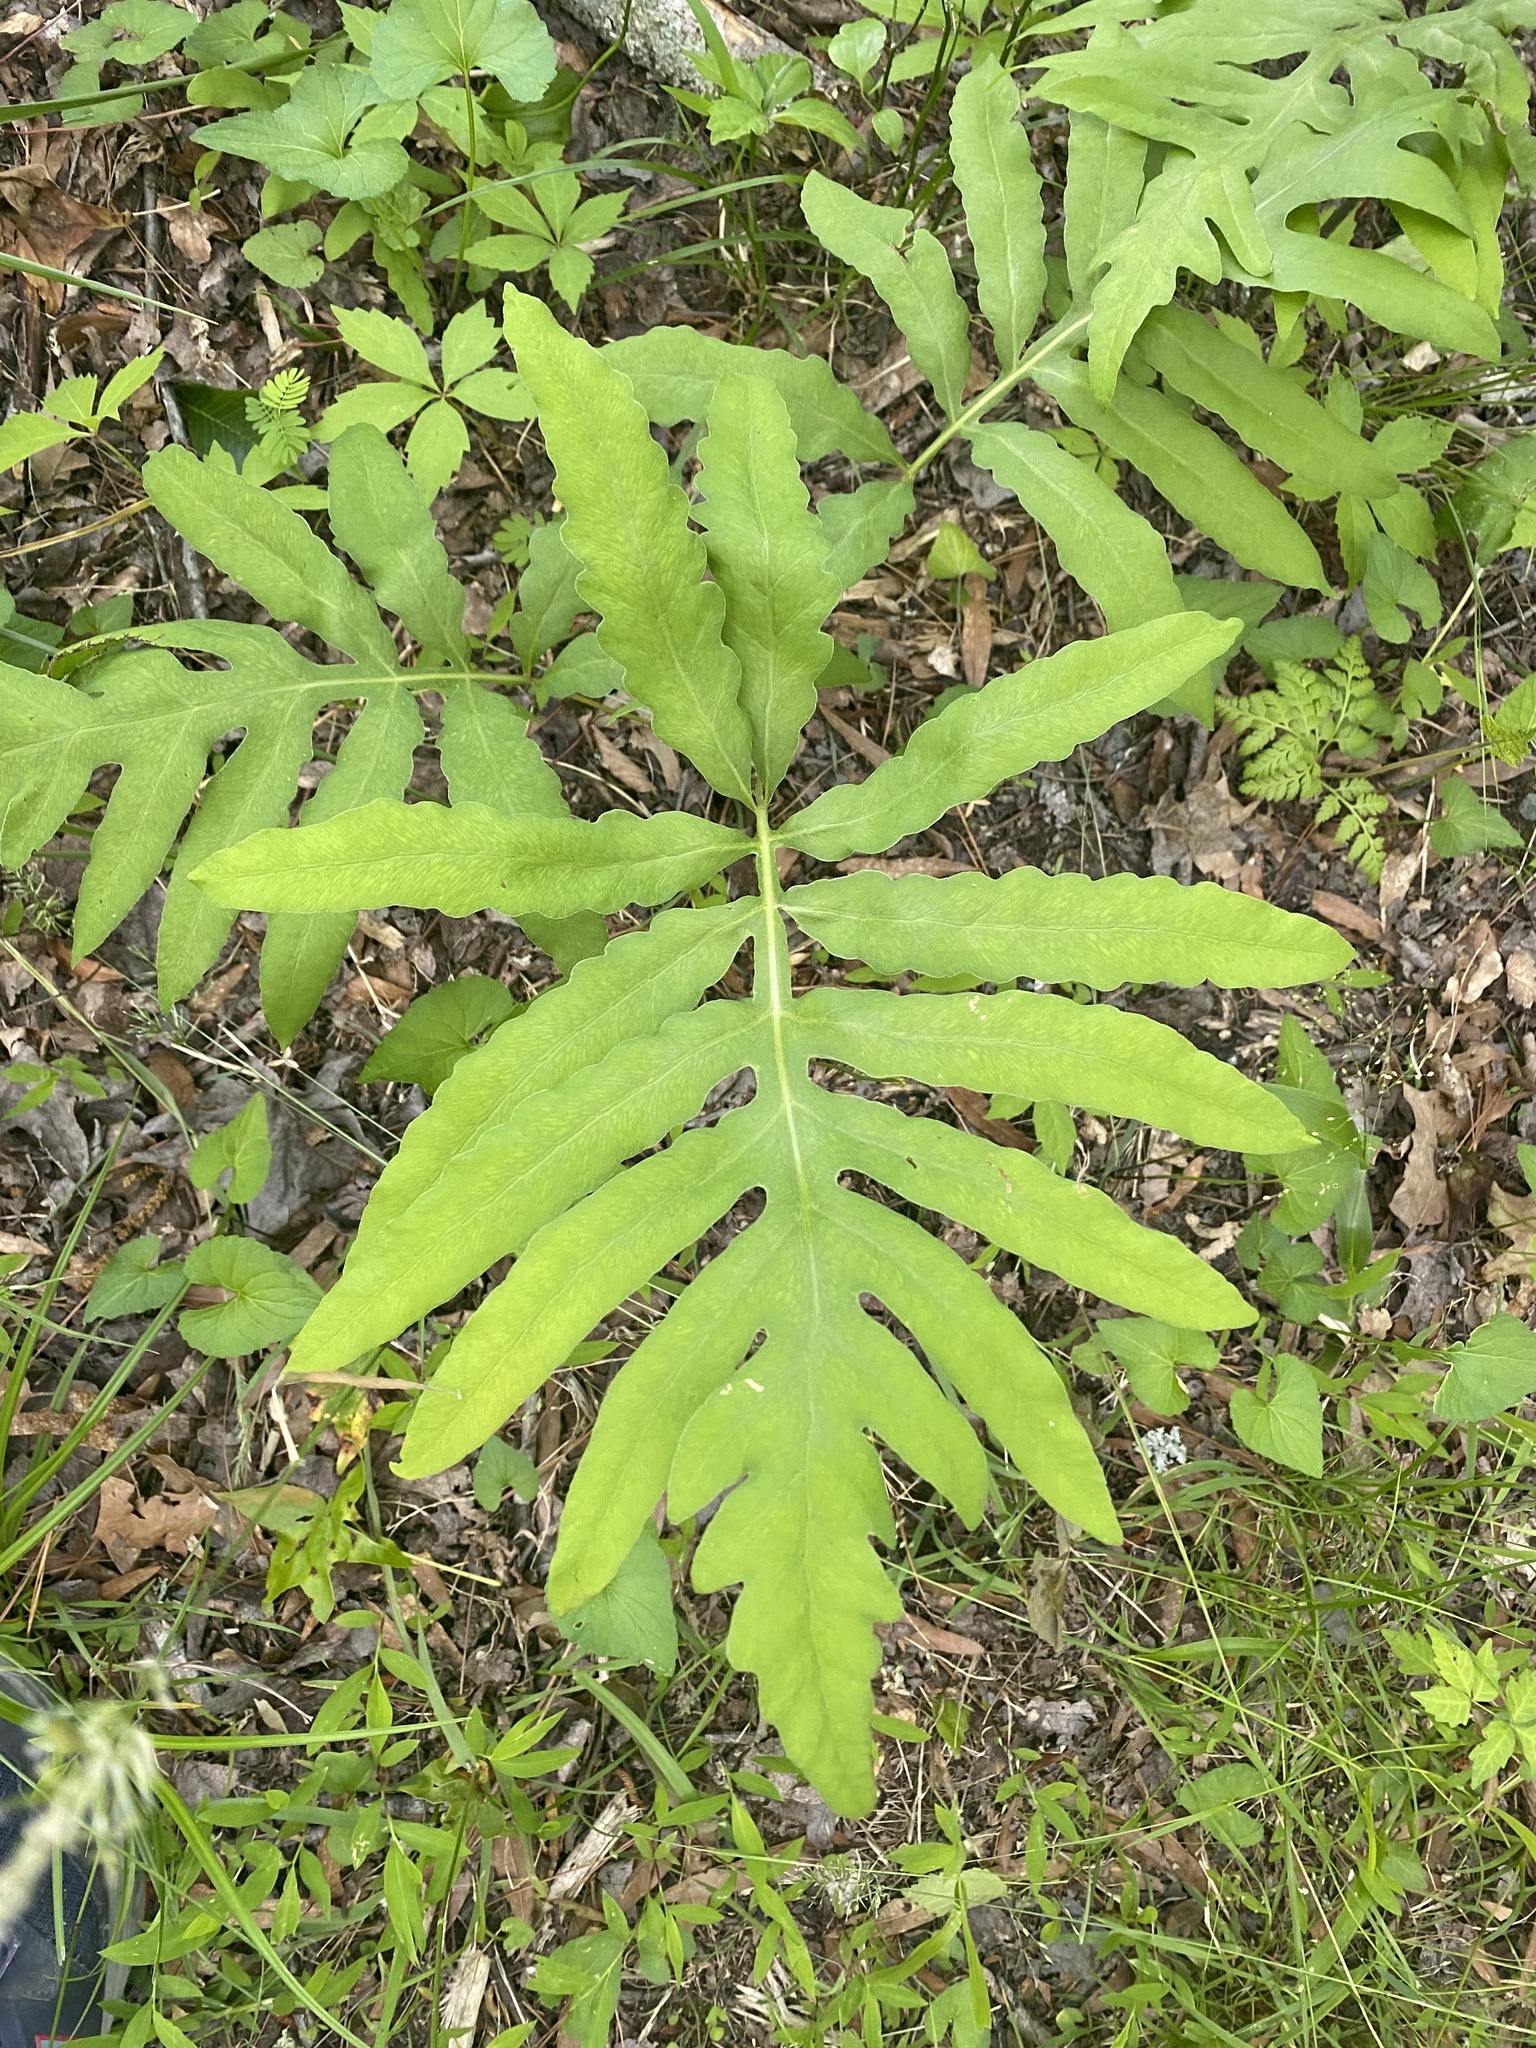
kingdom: Plantae
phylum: Tracheophyta
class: Polypodiopsida
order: Polypodiales
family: Onocleaceae
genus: Onoclea
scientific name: Onoclea sensibilis
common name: Sensitive fern
